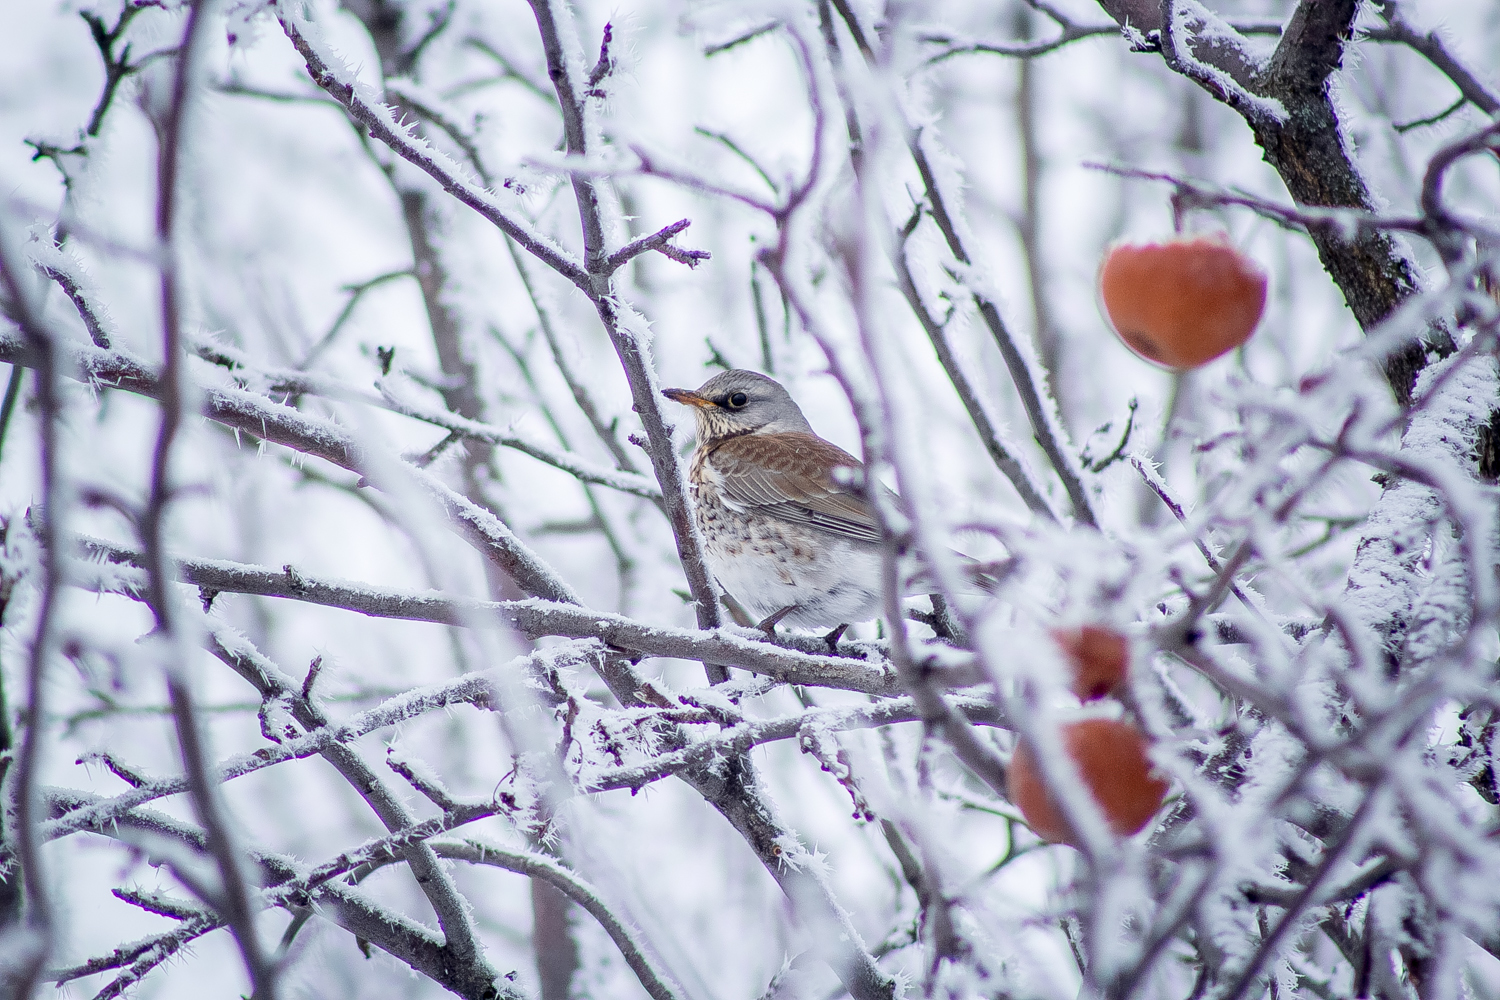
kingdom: Animalia
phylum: Chordata
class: Aves
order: Passeriformes
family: Turdidae
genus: Turdus
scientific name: Turdus pilaris
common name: Fieldfare
